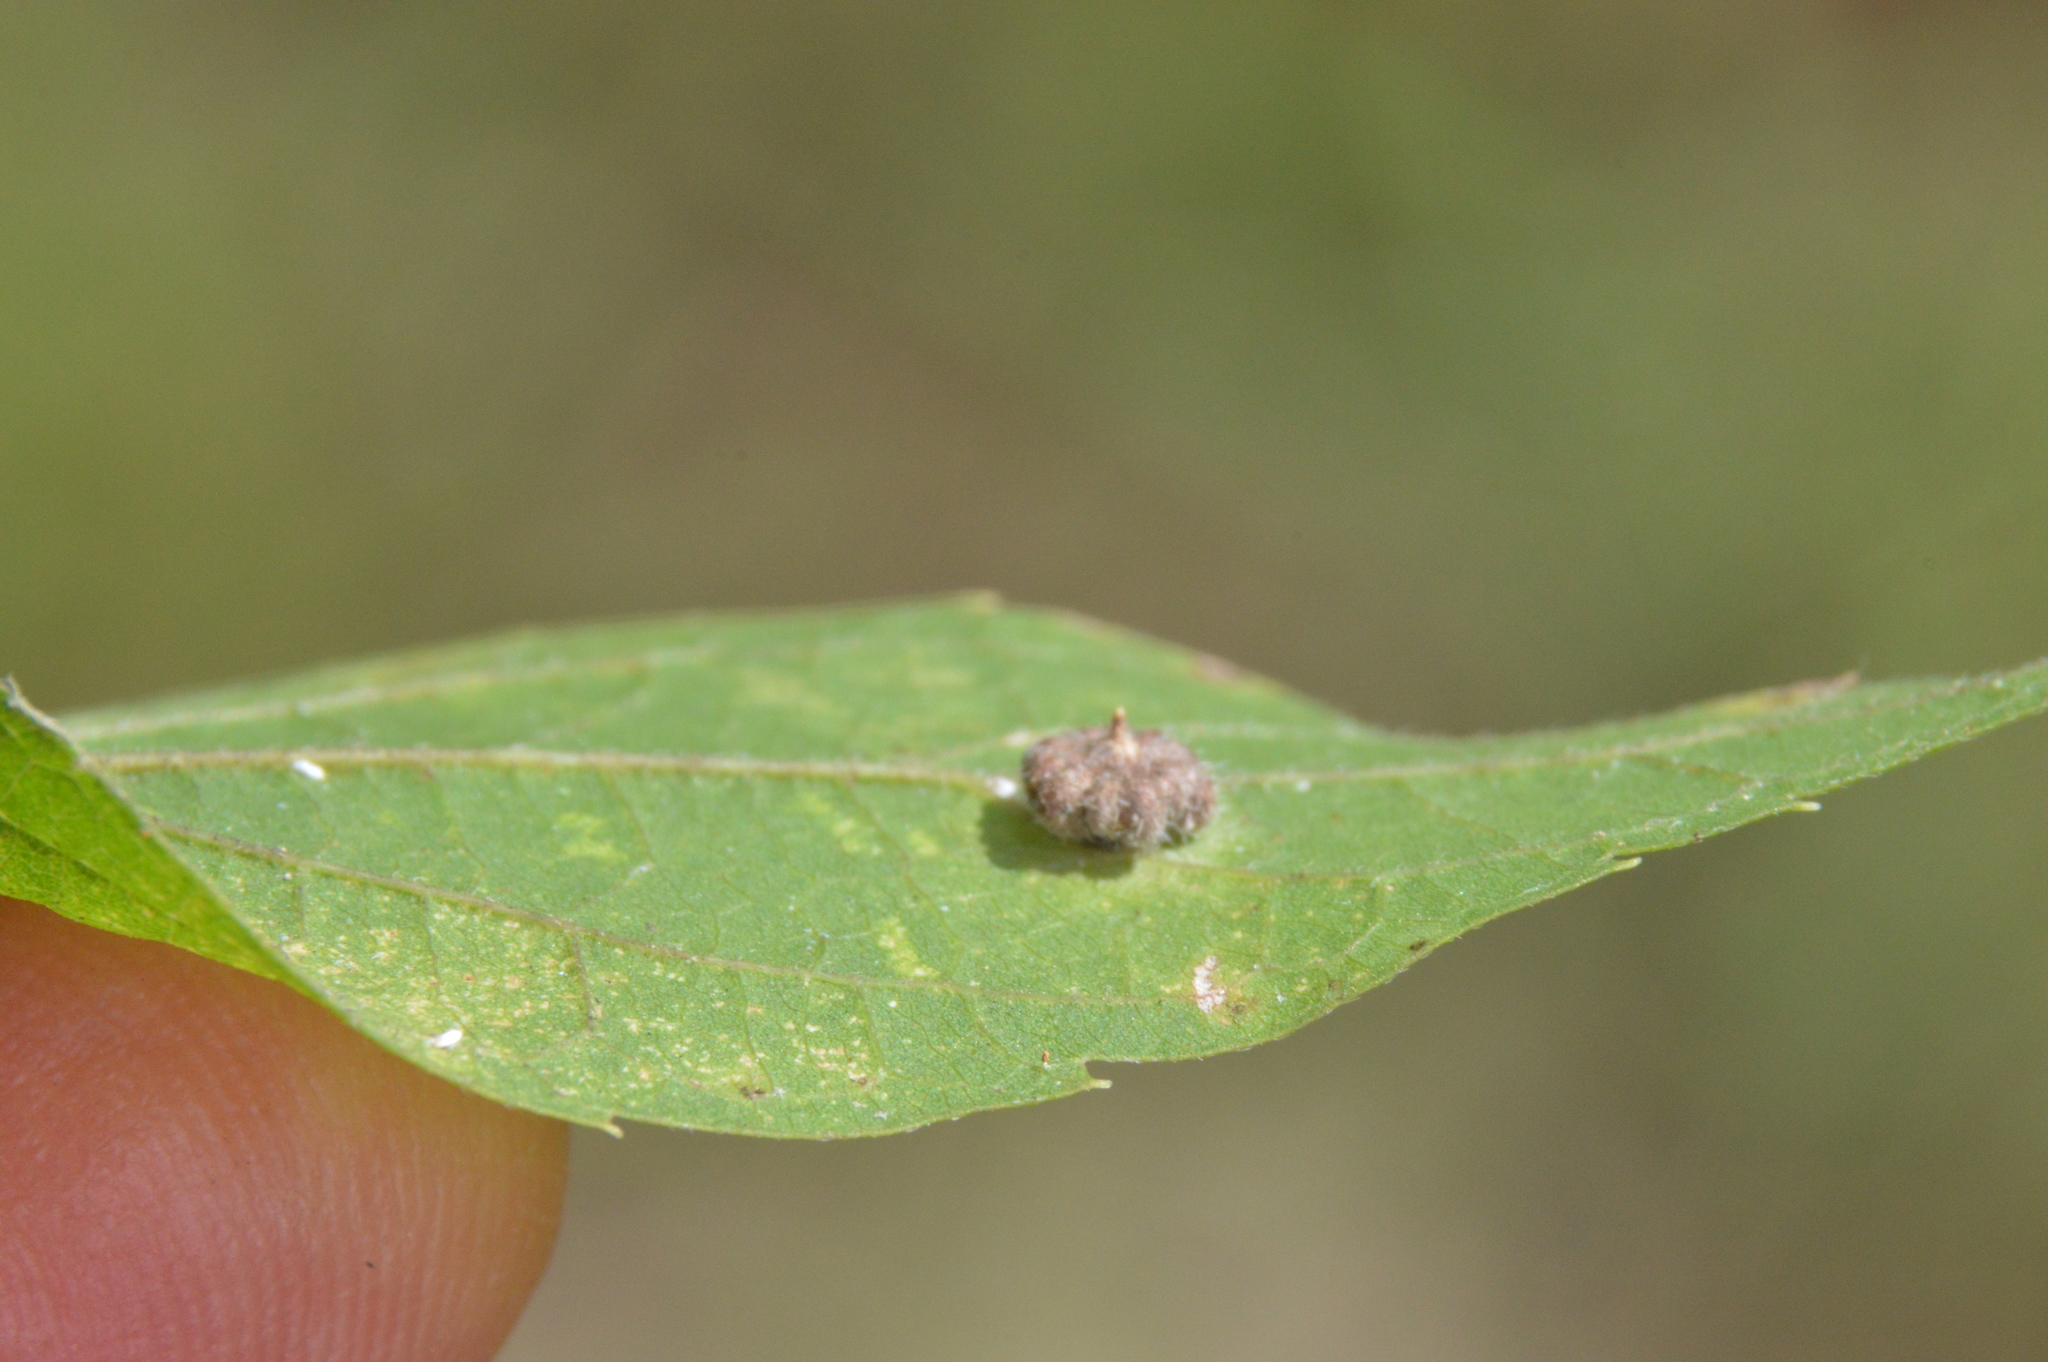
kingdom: Animalia
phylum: Arthropoda
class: Insecta
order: Diptera
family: Cecidomyiidae
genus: Celticecis
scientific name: Celticecis capsularis
